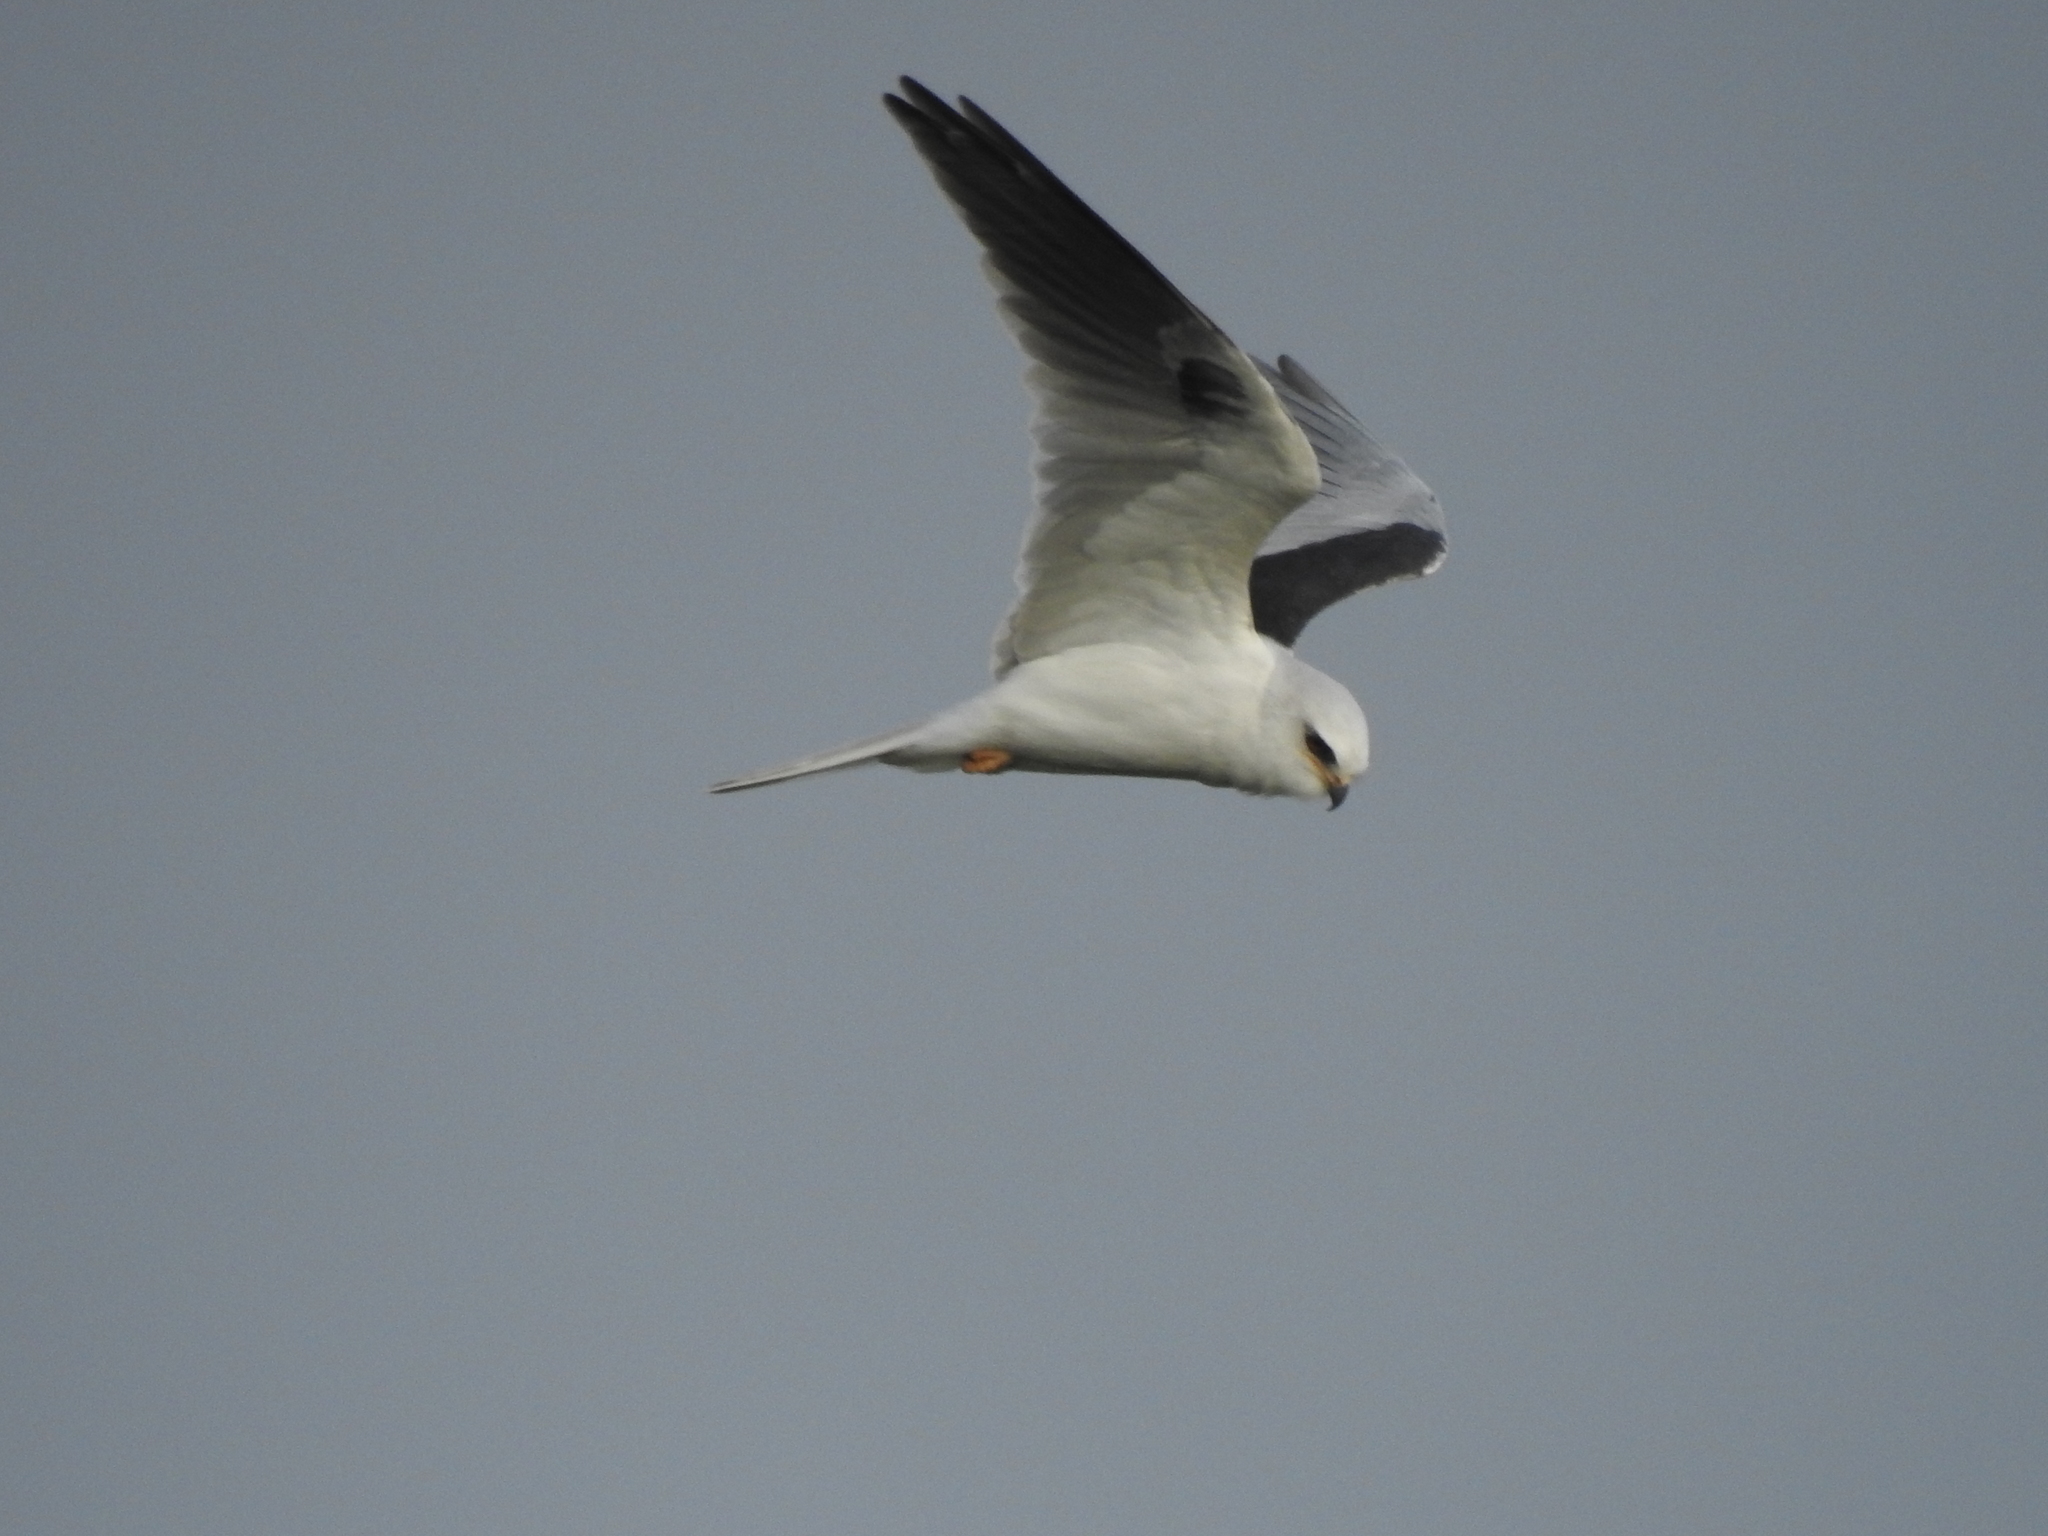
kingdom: Animalia
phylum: Chordata
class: Aves
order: Accipitriformes
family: Accipitridae
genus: Elanus
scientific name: Elanus leucurus
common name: White-tailed kite
